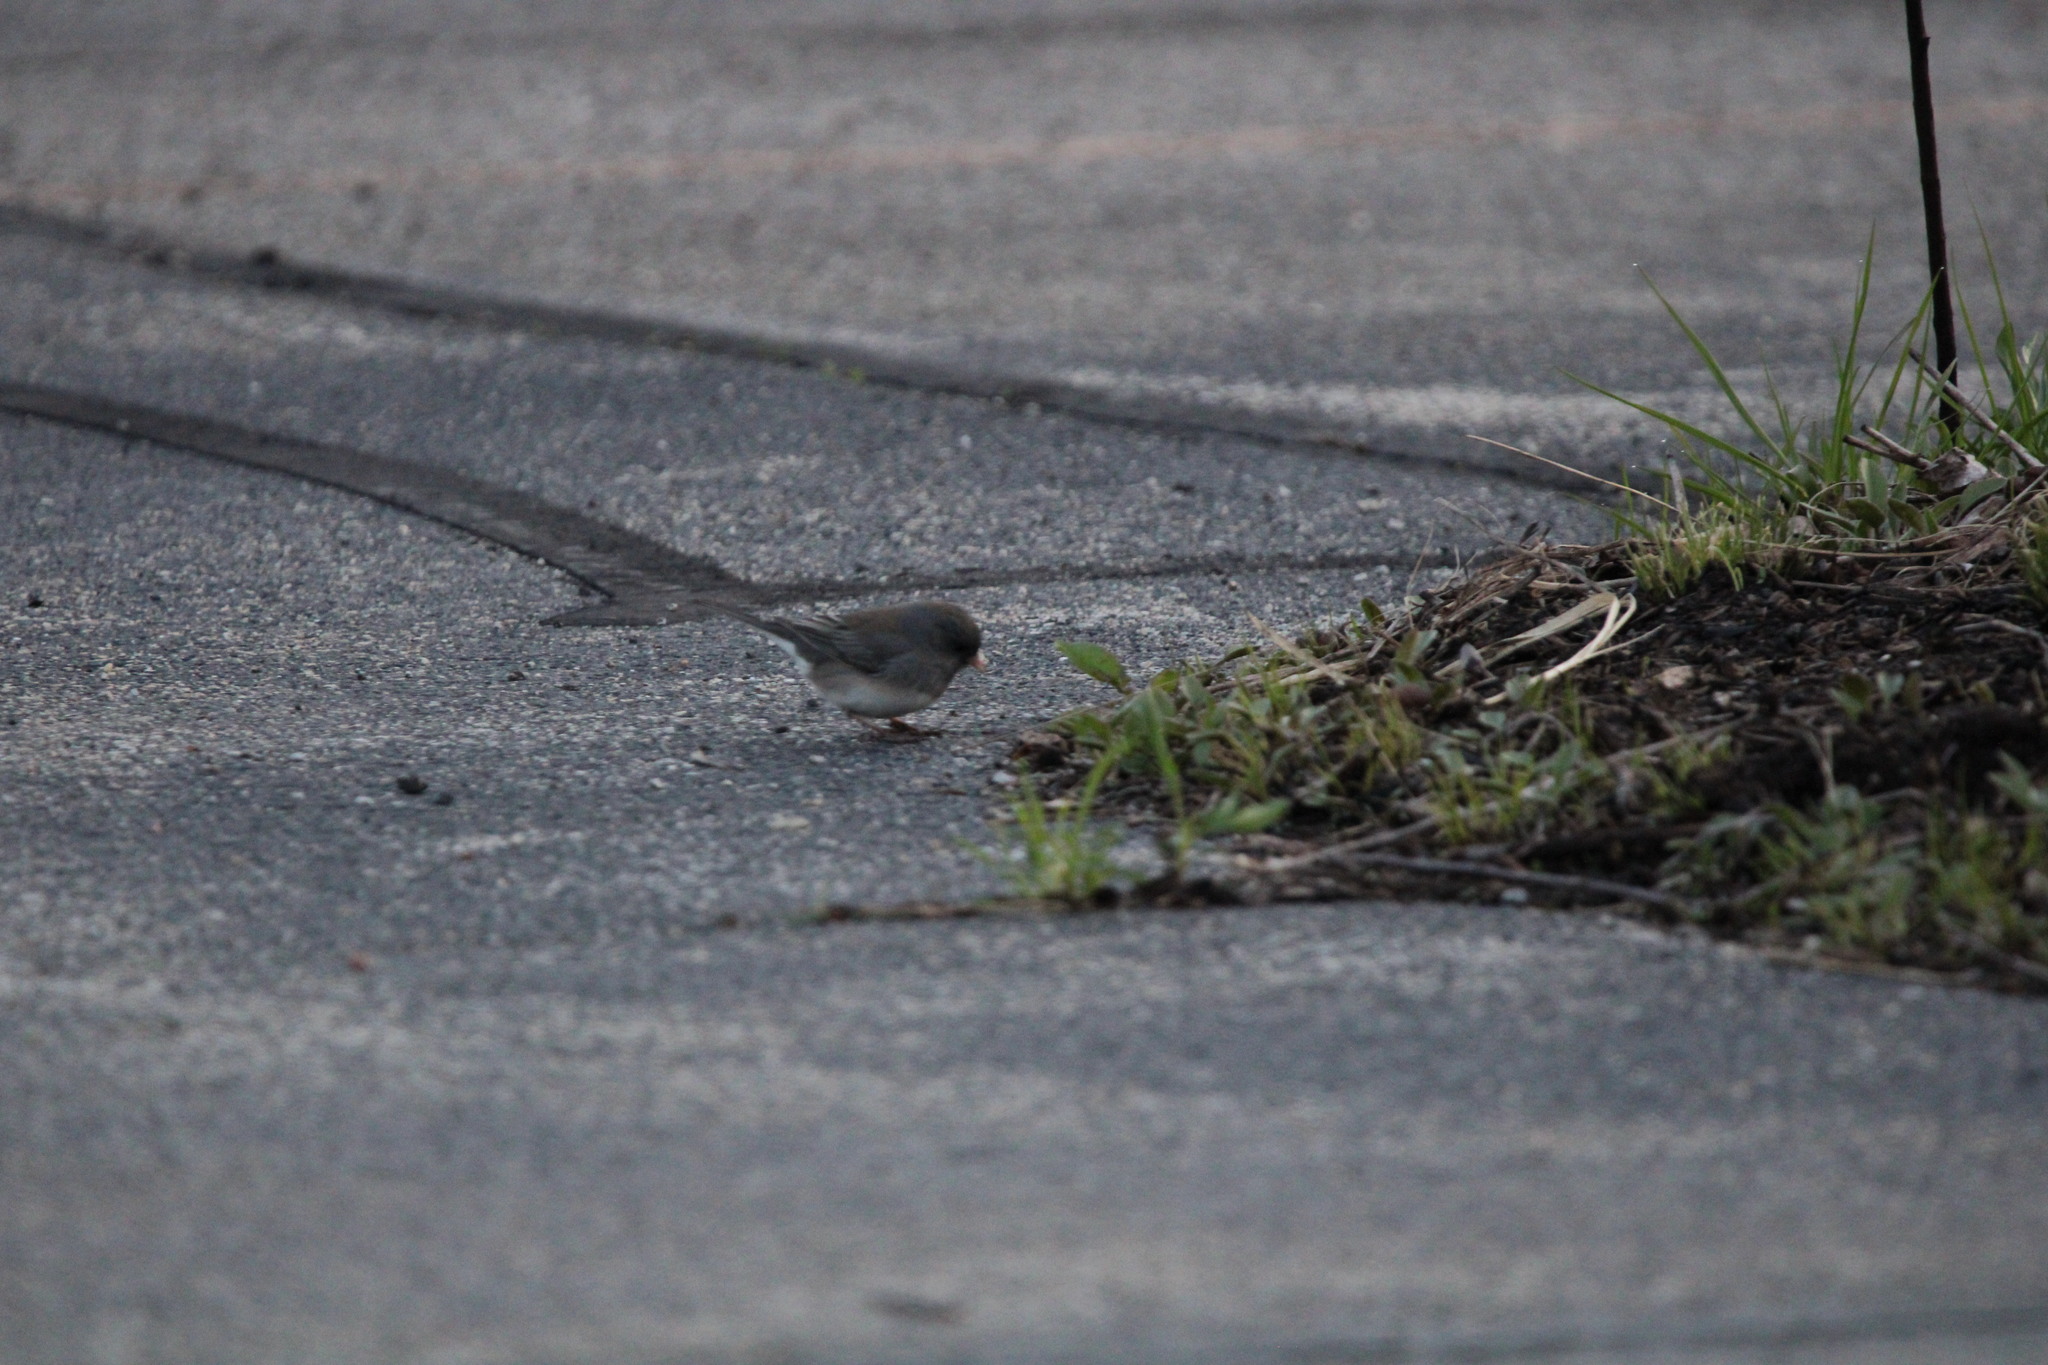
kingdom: Animalia
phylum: Chordata
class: Aves
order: Passeriformes
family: Passerellidae
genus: Junco
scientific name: Junco hyemalis
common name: Dark-eyed junco
